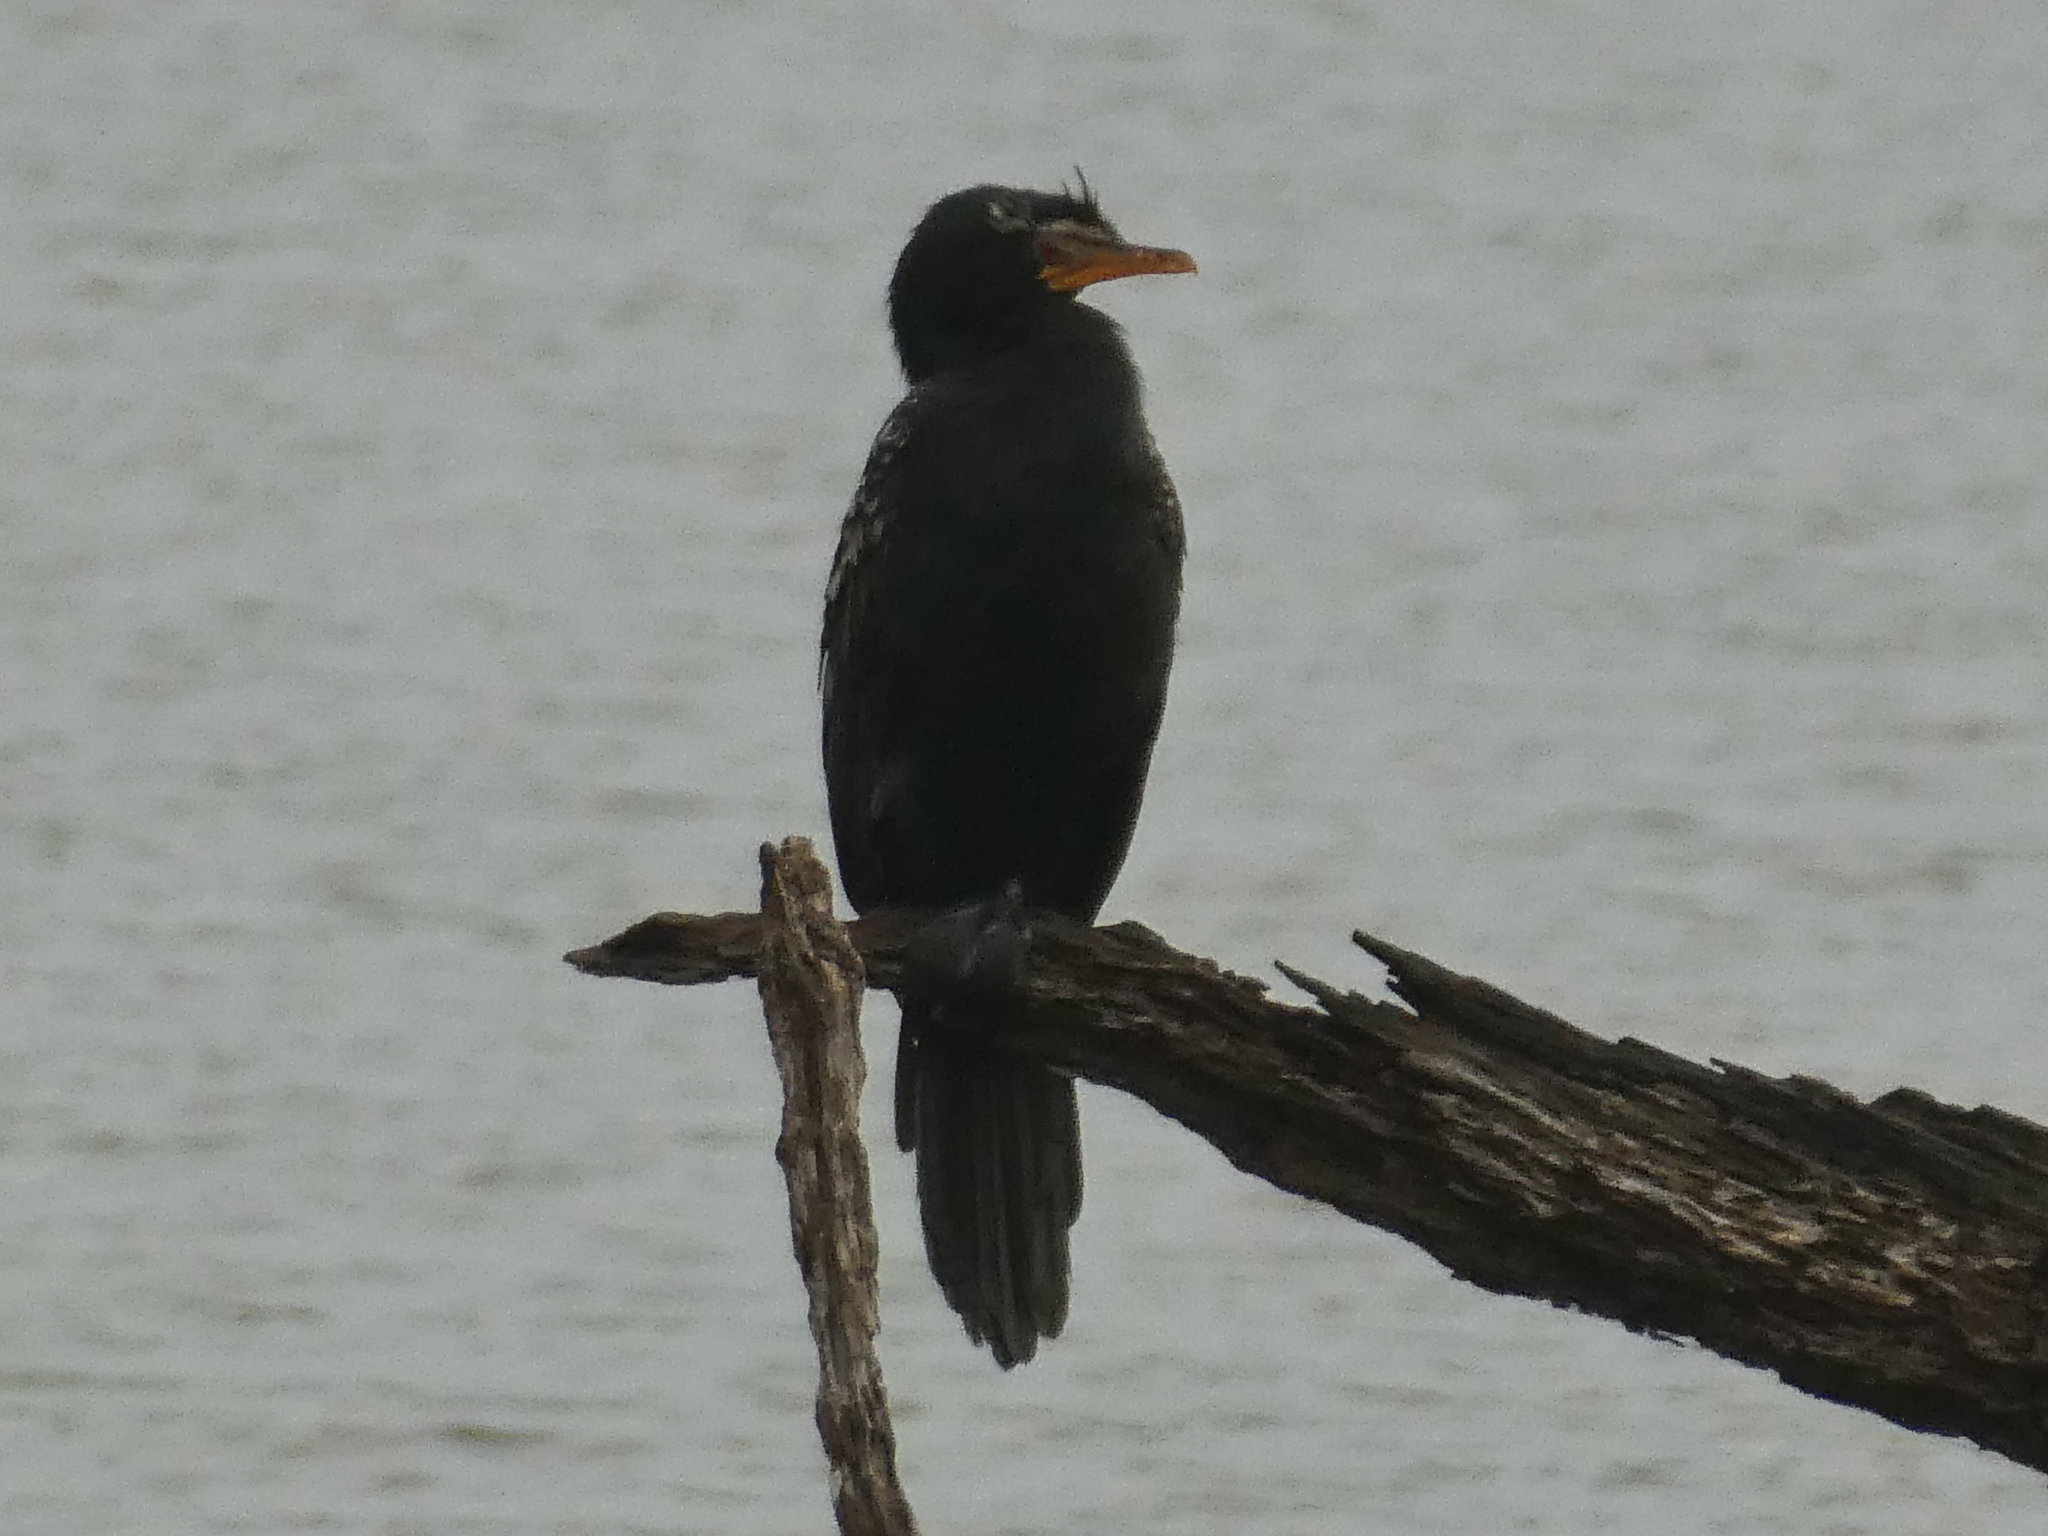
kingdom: Animalia
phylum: Chordata
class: Aves
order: Suliformes
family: Phalacrocoracidae
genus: Microcarbo
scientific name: Microcarbo africanus
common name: Long-tailed cormorant
